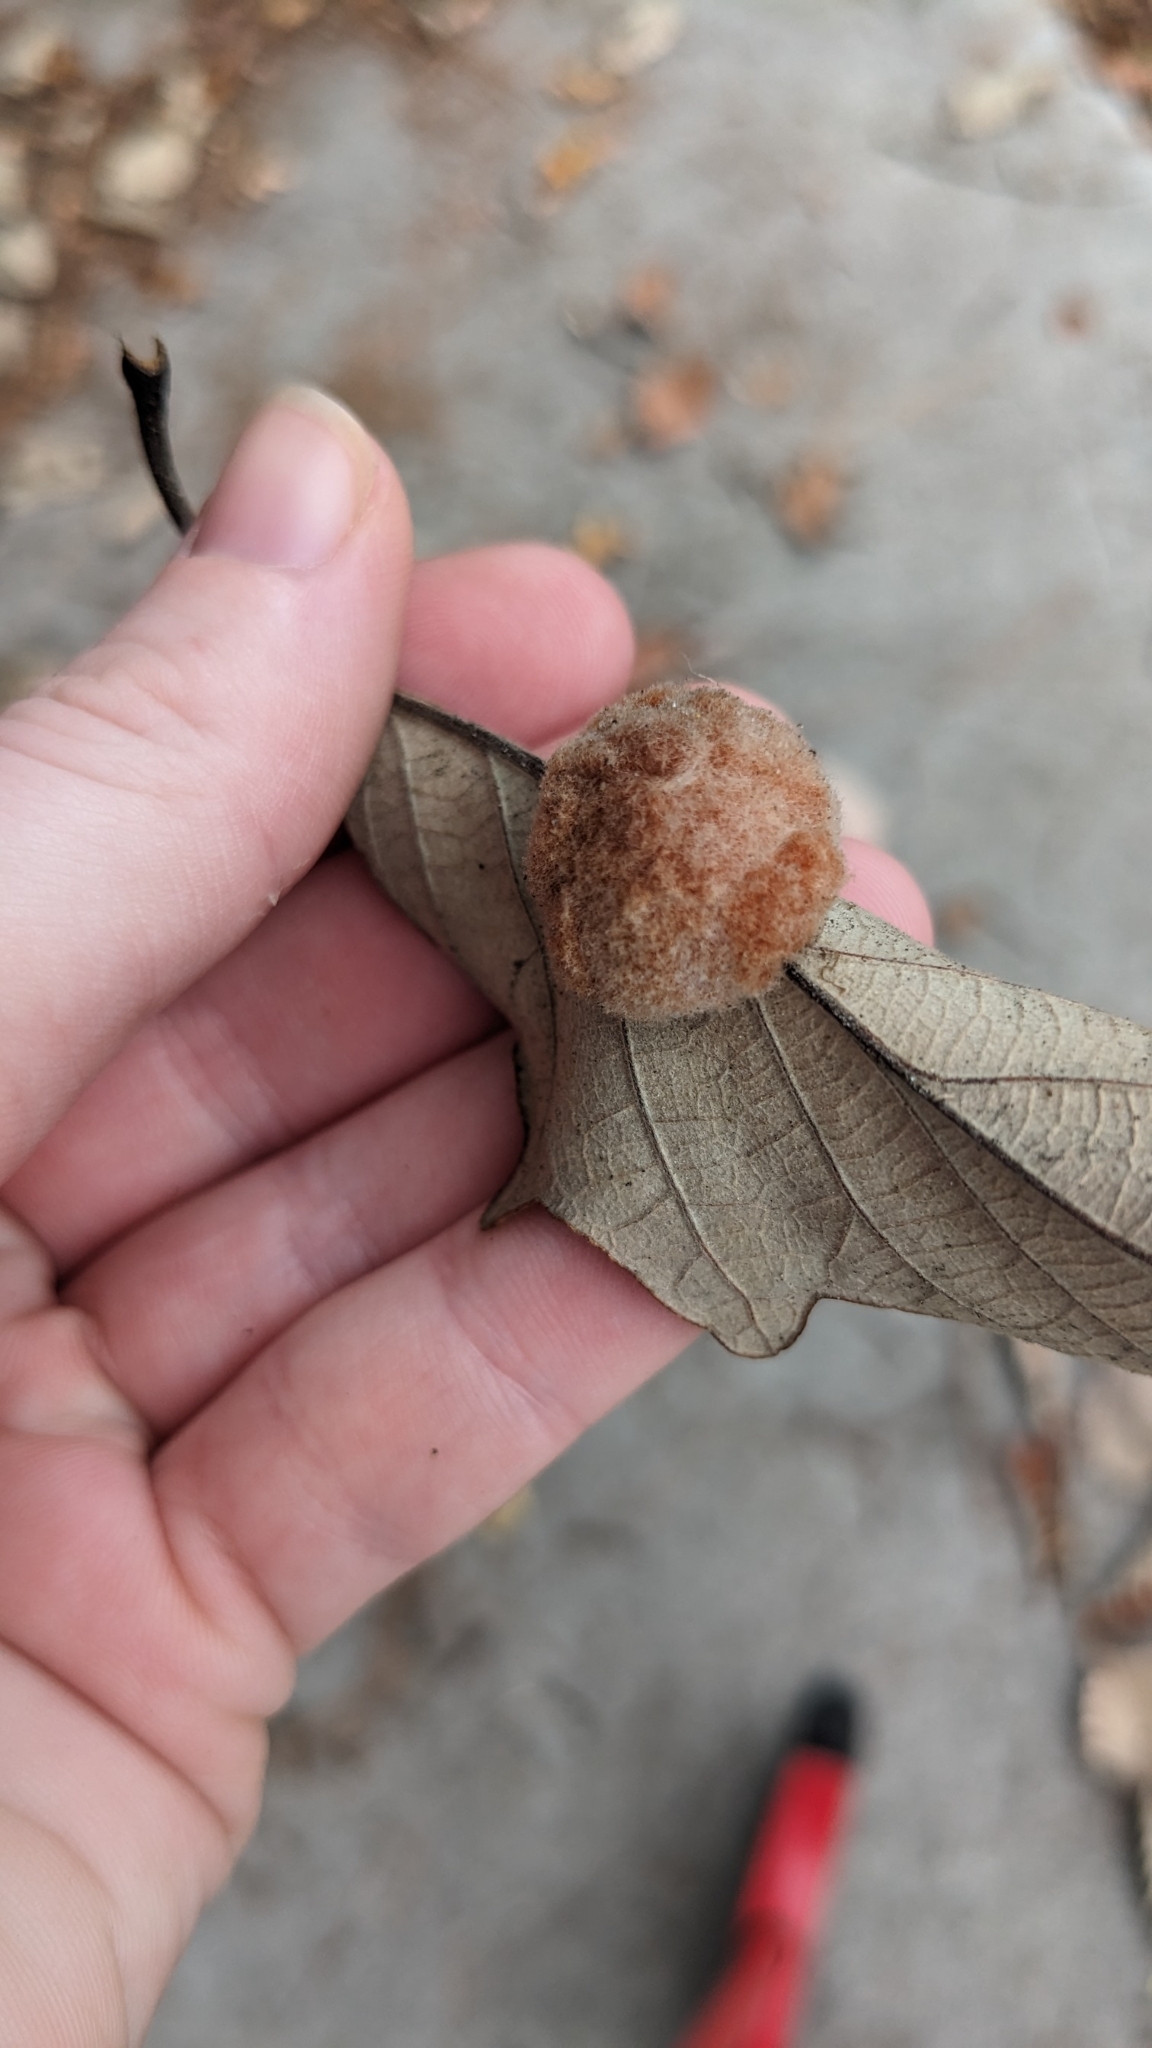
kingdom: Animalia
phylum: Arthropoda
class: Insecta
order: Hymenoptera
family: Cynipidae
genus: Andricus
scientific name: Andricus quercusflocci
